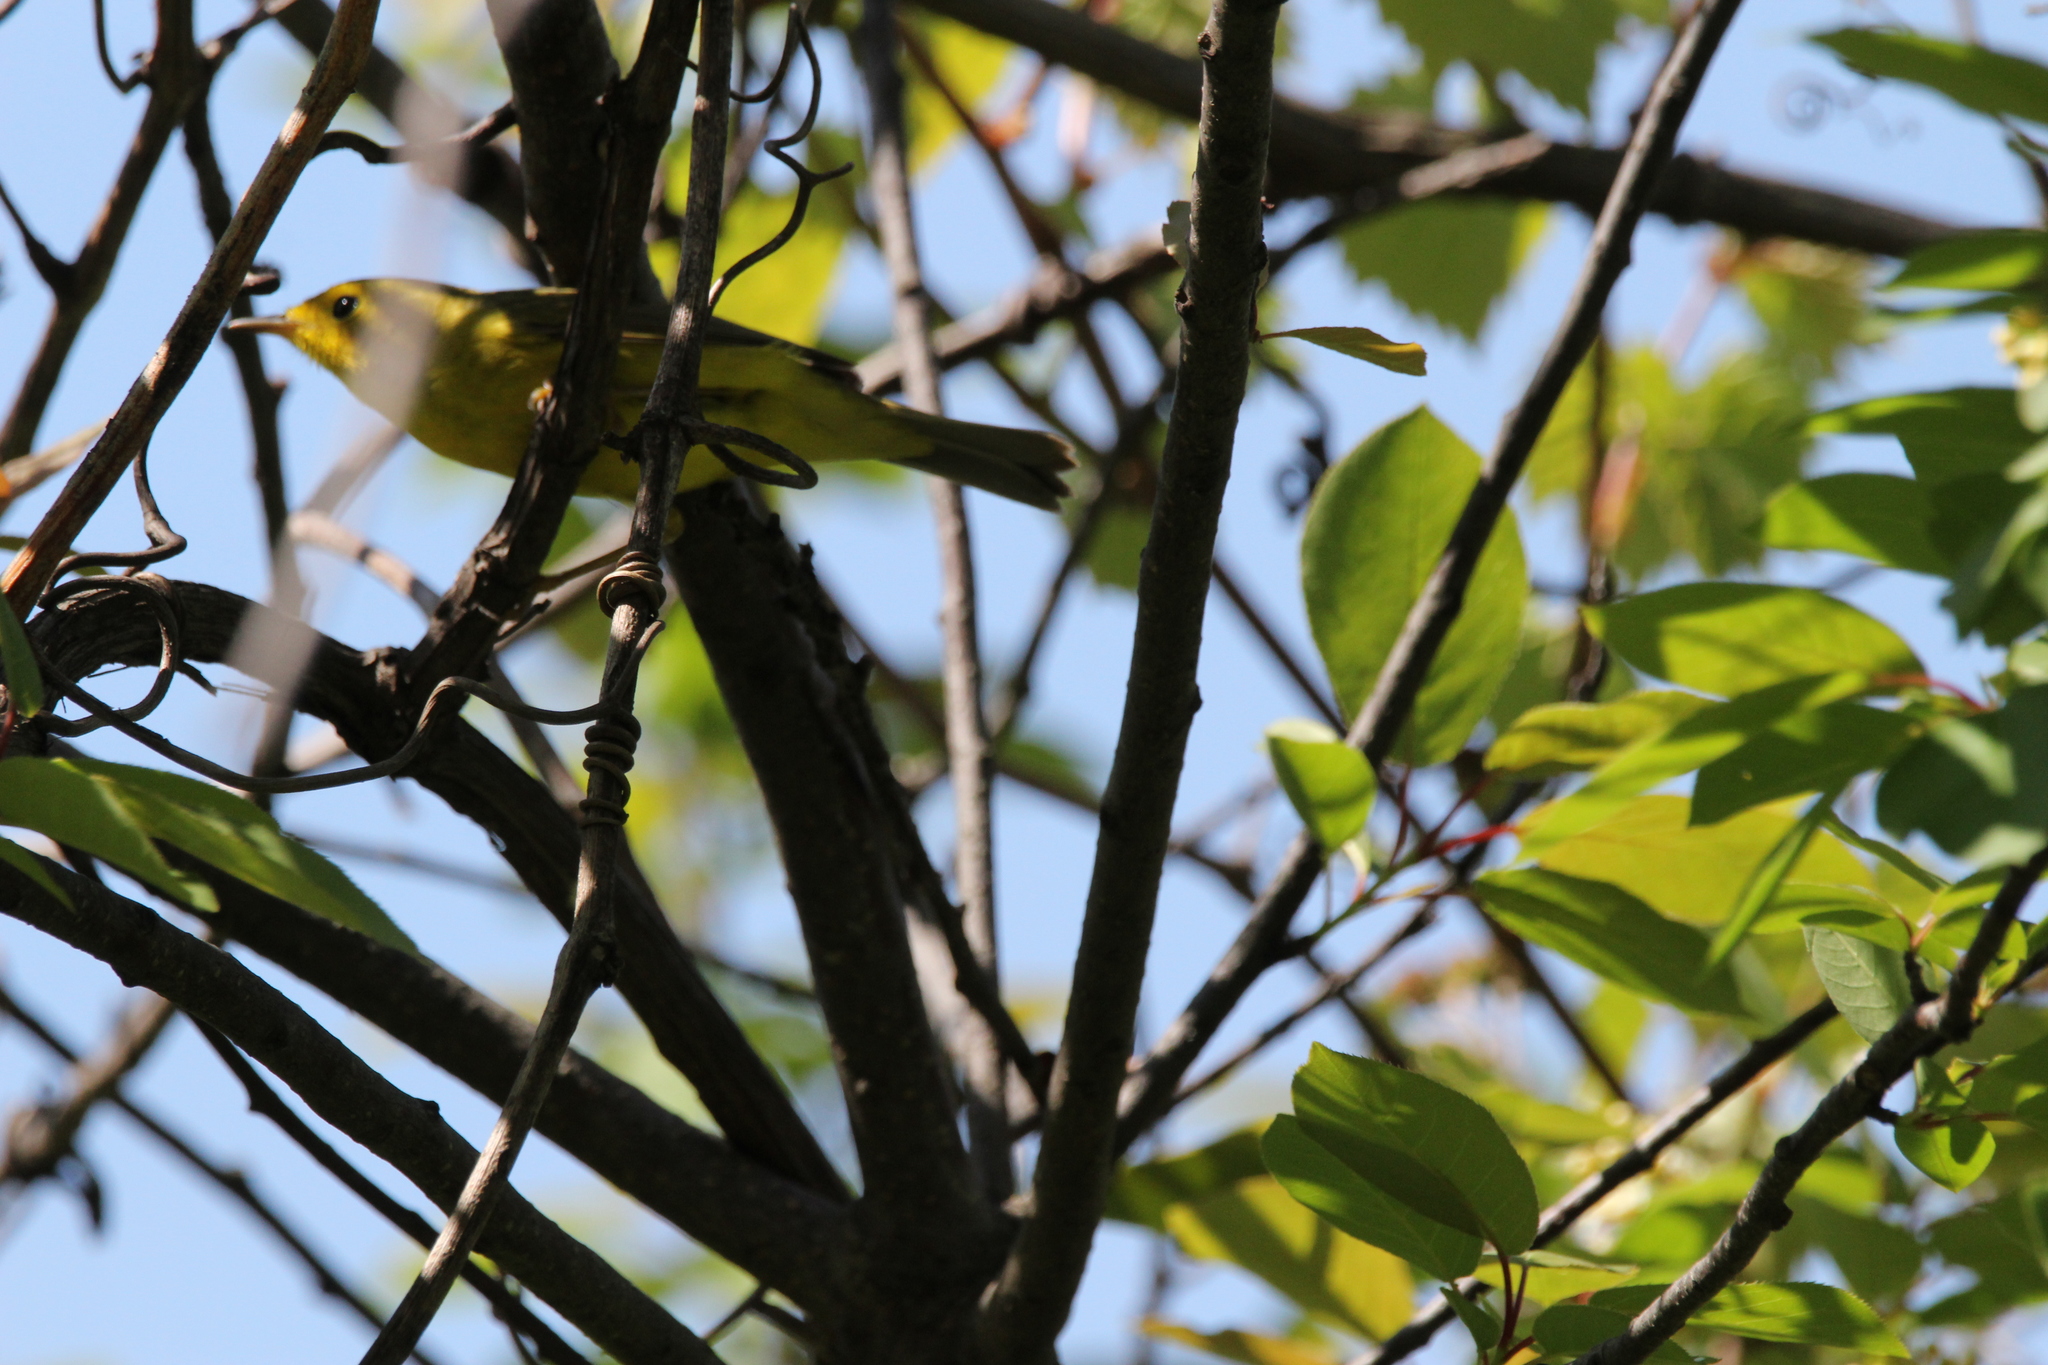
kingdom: Animalia
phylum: Chordata
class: Aves
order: Passeriformes
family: Parulidae
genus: Cardellina
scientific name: Cardellina pusilla
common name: Wilson's warbler
